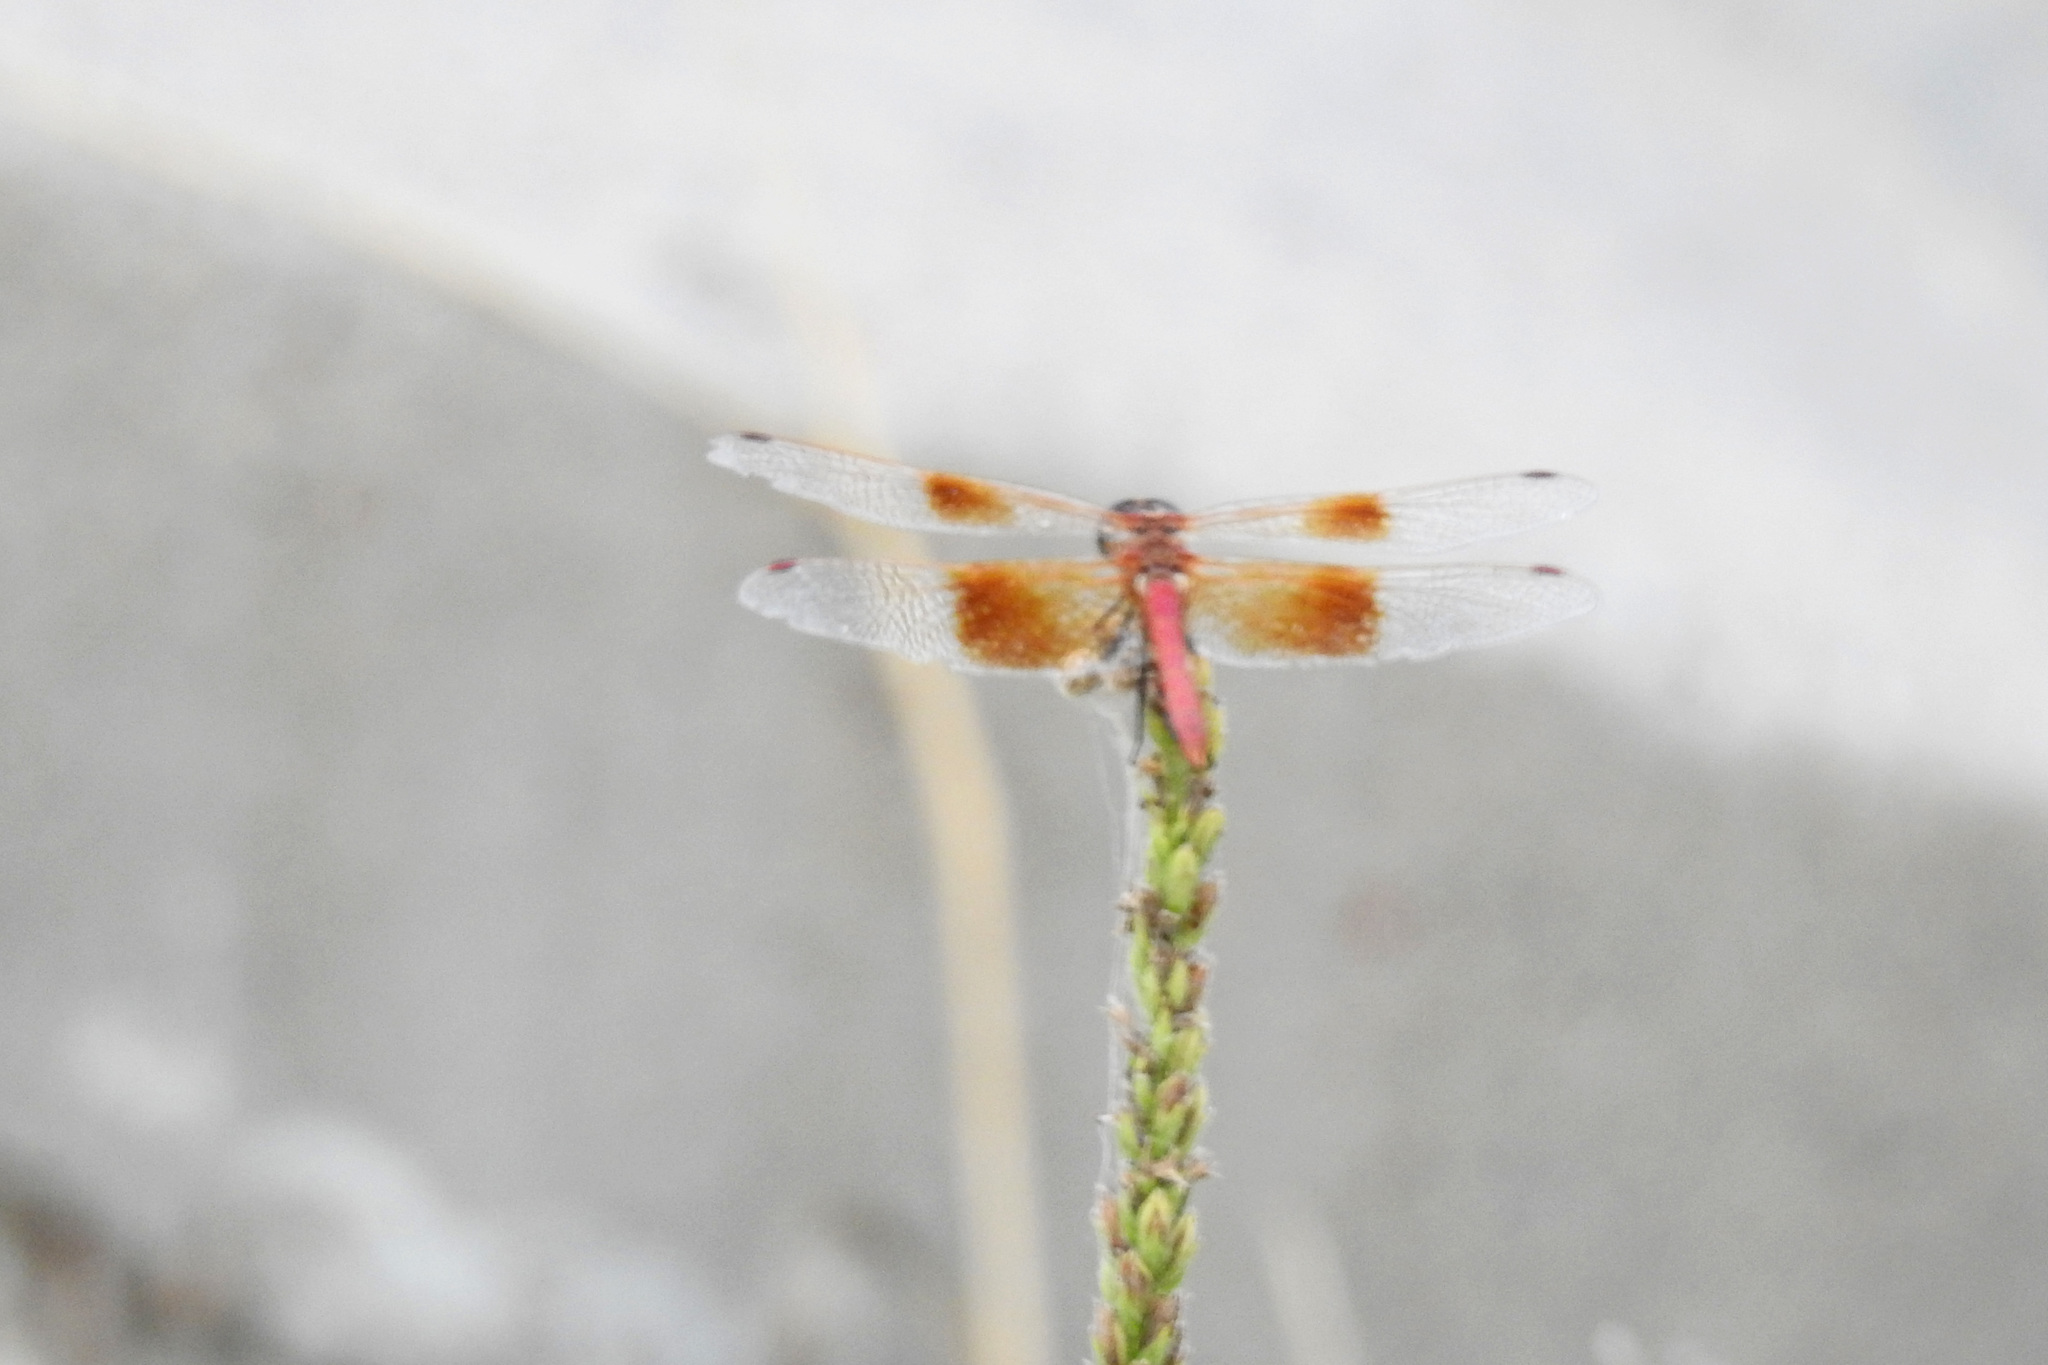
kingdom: Animalia
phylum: Arthropoda
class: Insecta
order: Odonata
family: Libellulidae
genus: Sympetrum
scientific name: Sympetrum semicinctum
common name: Band-winged meadowhawk
